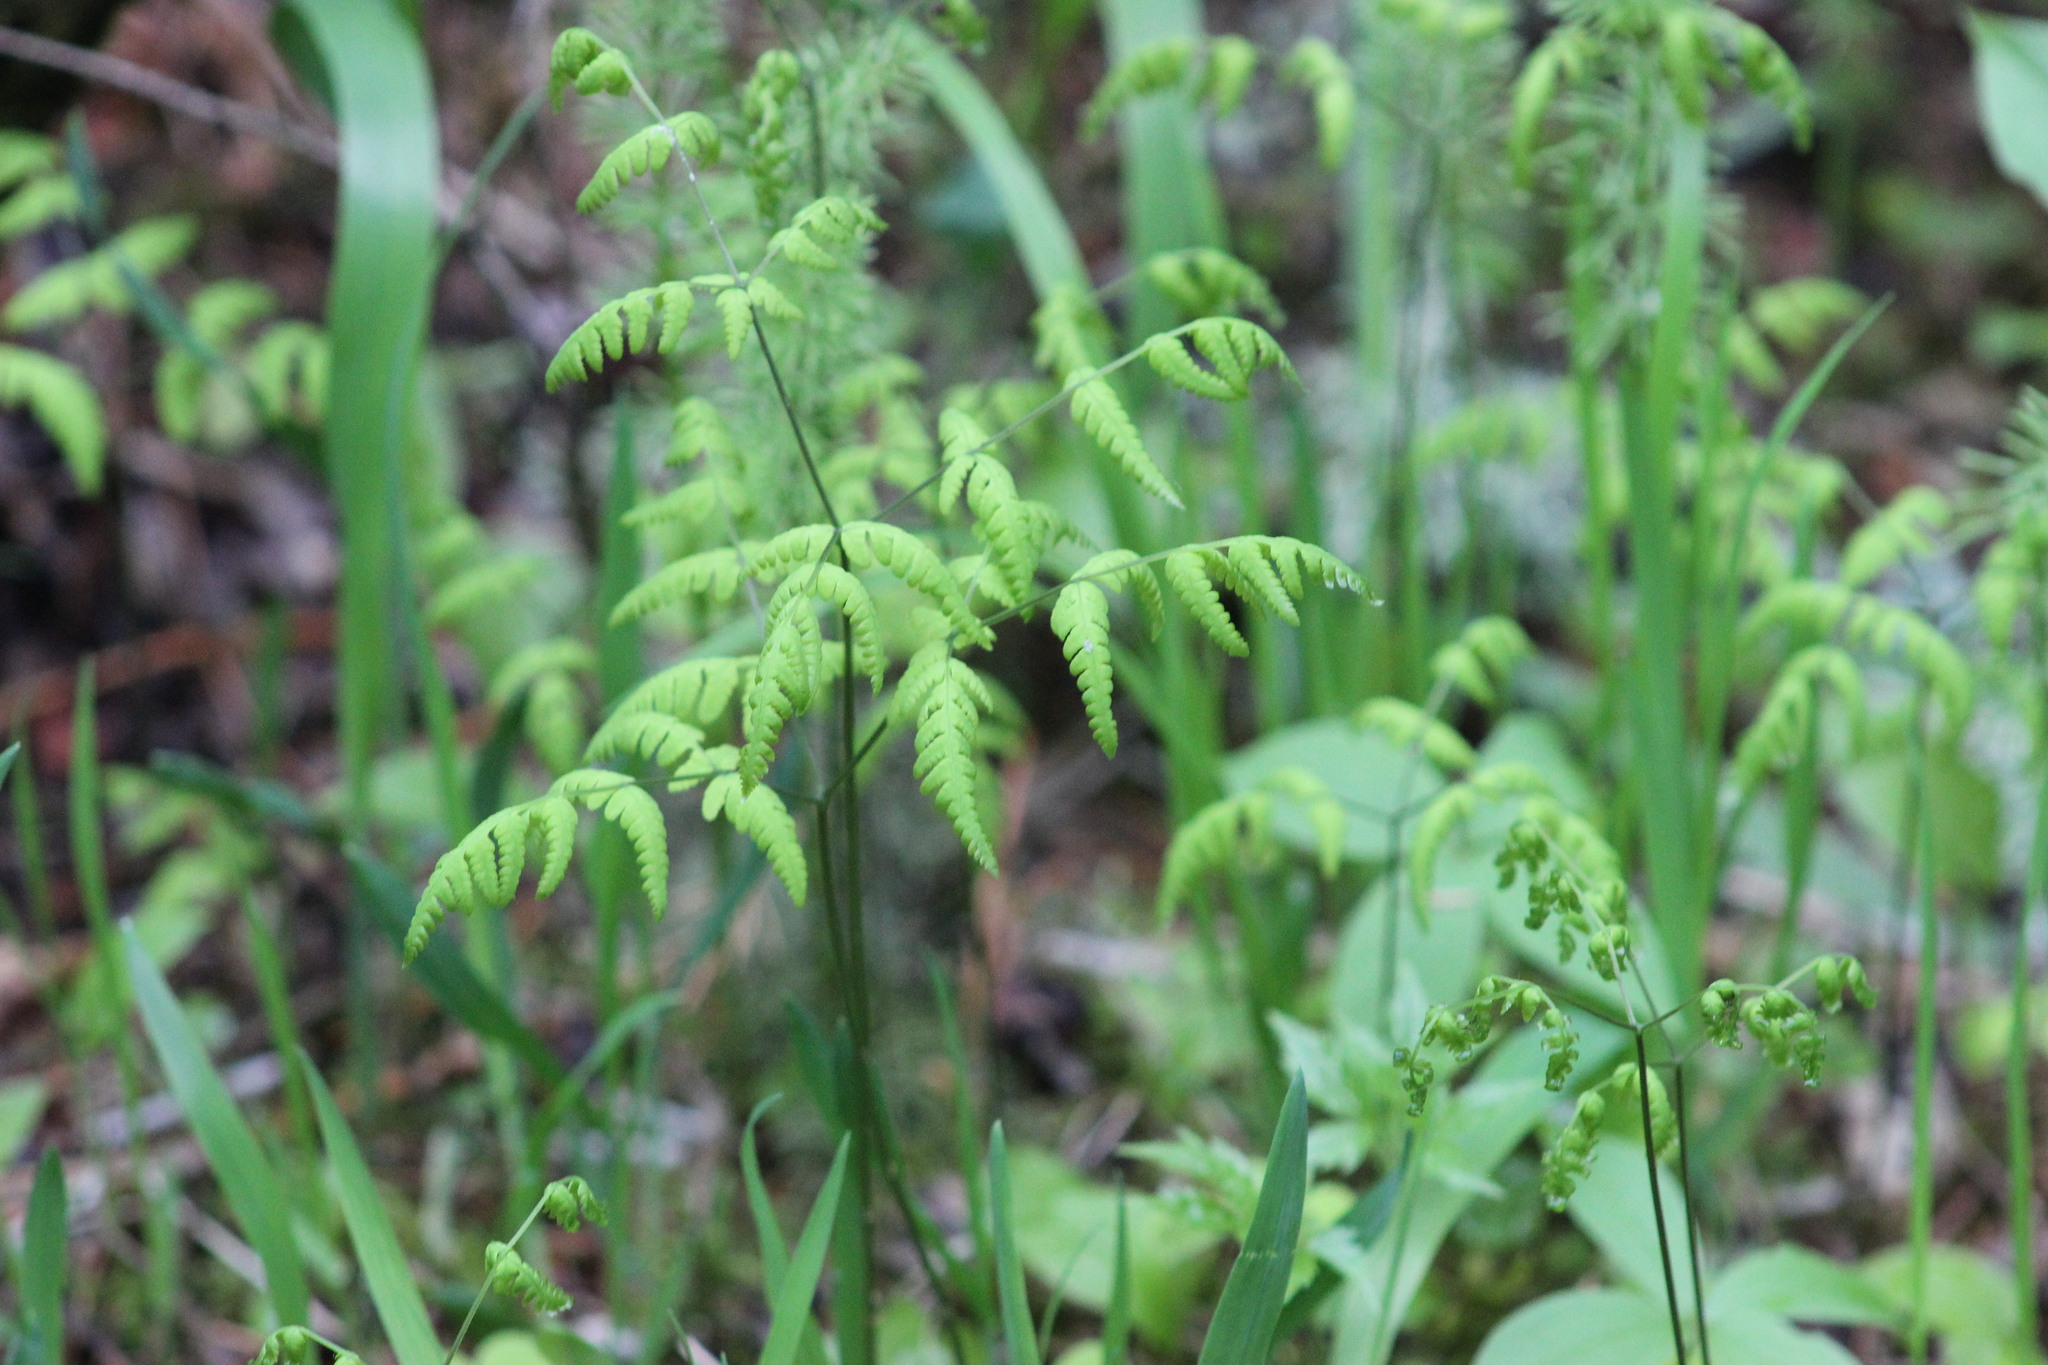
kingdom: Plantae
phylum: Tracheophyta
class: Polypodiopsida
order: Polypodiales
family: Cystopteridaceae
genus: Gymnocarpium
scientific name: Gymnocarpium dryopteris
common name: Oak fern
